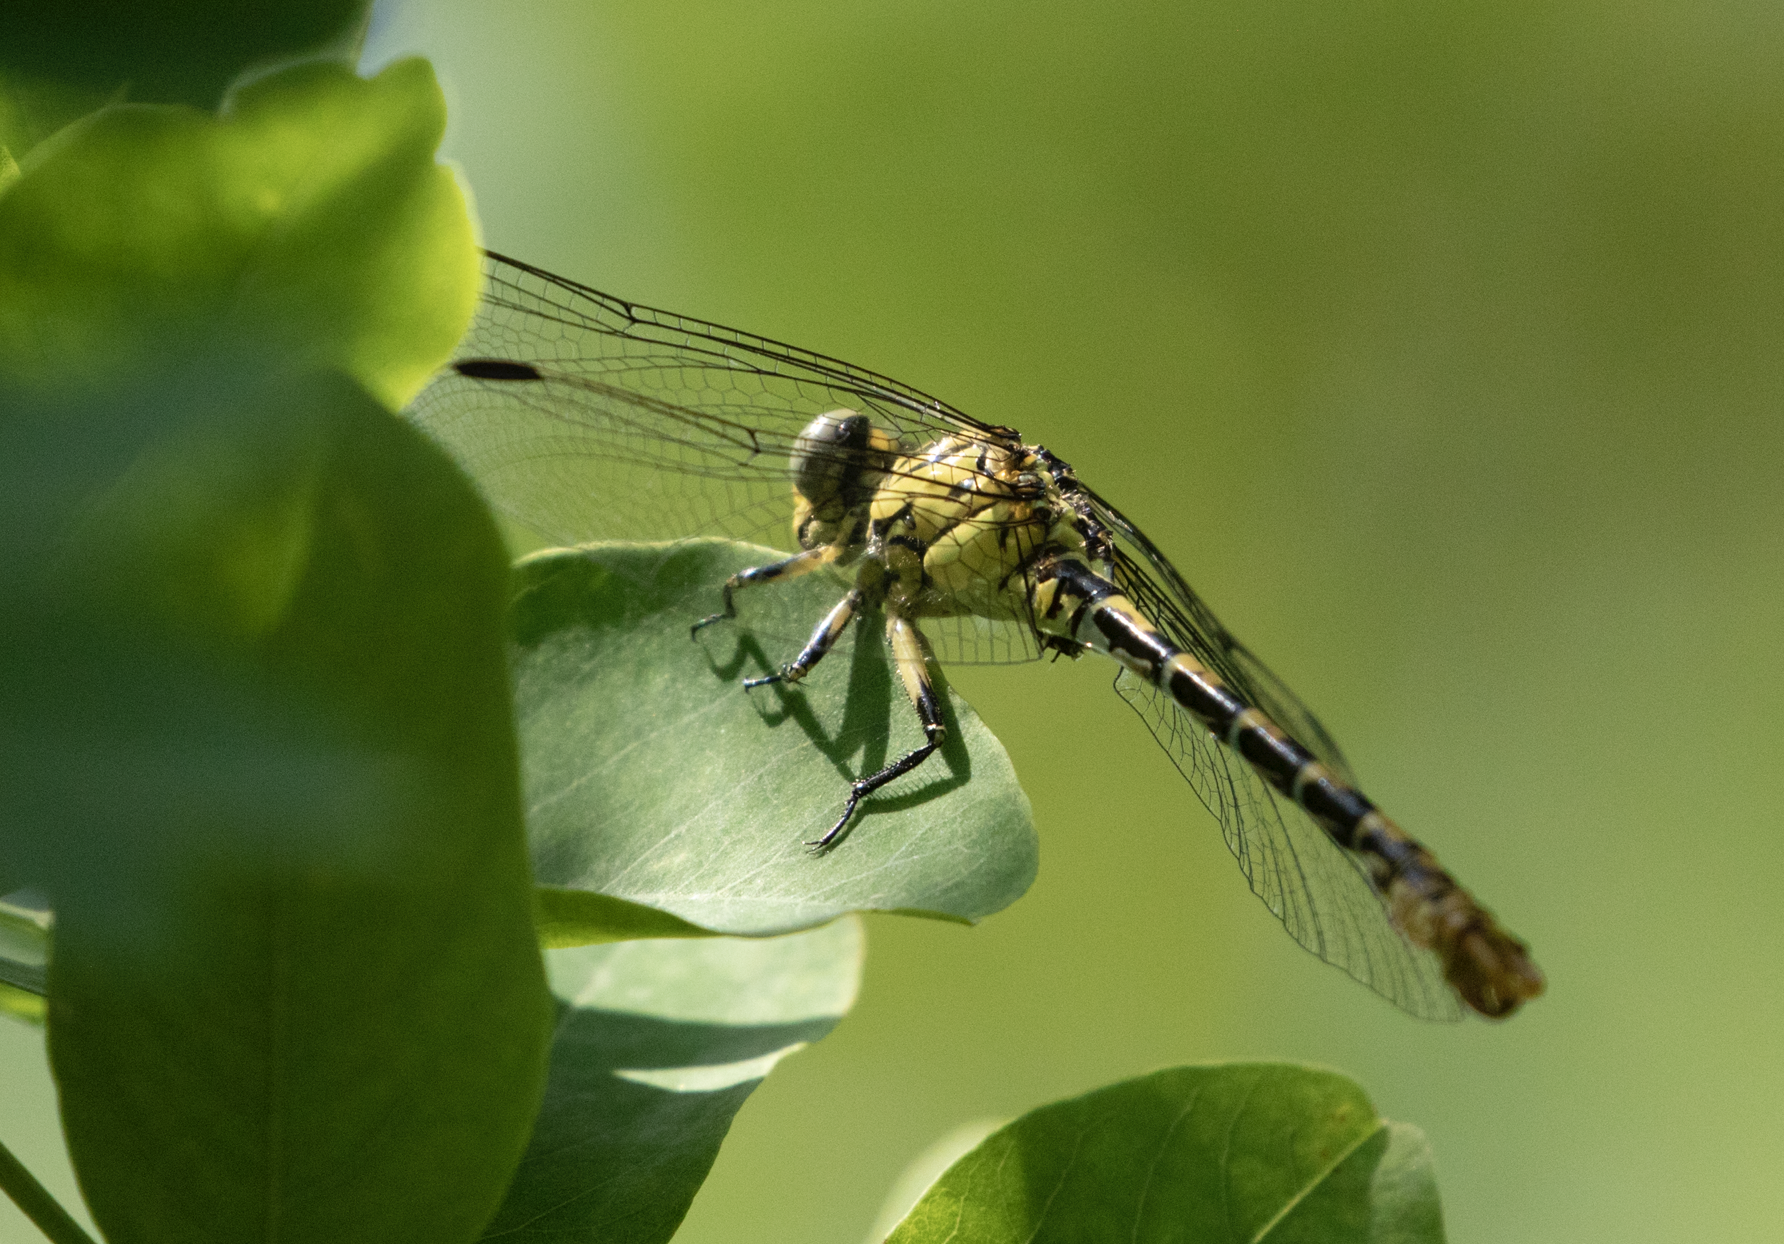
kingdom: Animalia
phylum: Arthropoda
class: Insecta
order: Odonata
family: Gomphidae
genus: Onychogomphus
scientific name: Onychogomphus forcipatus
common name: Small pincertail
